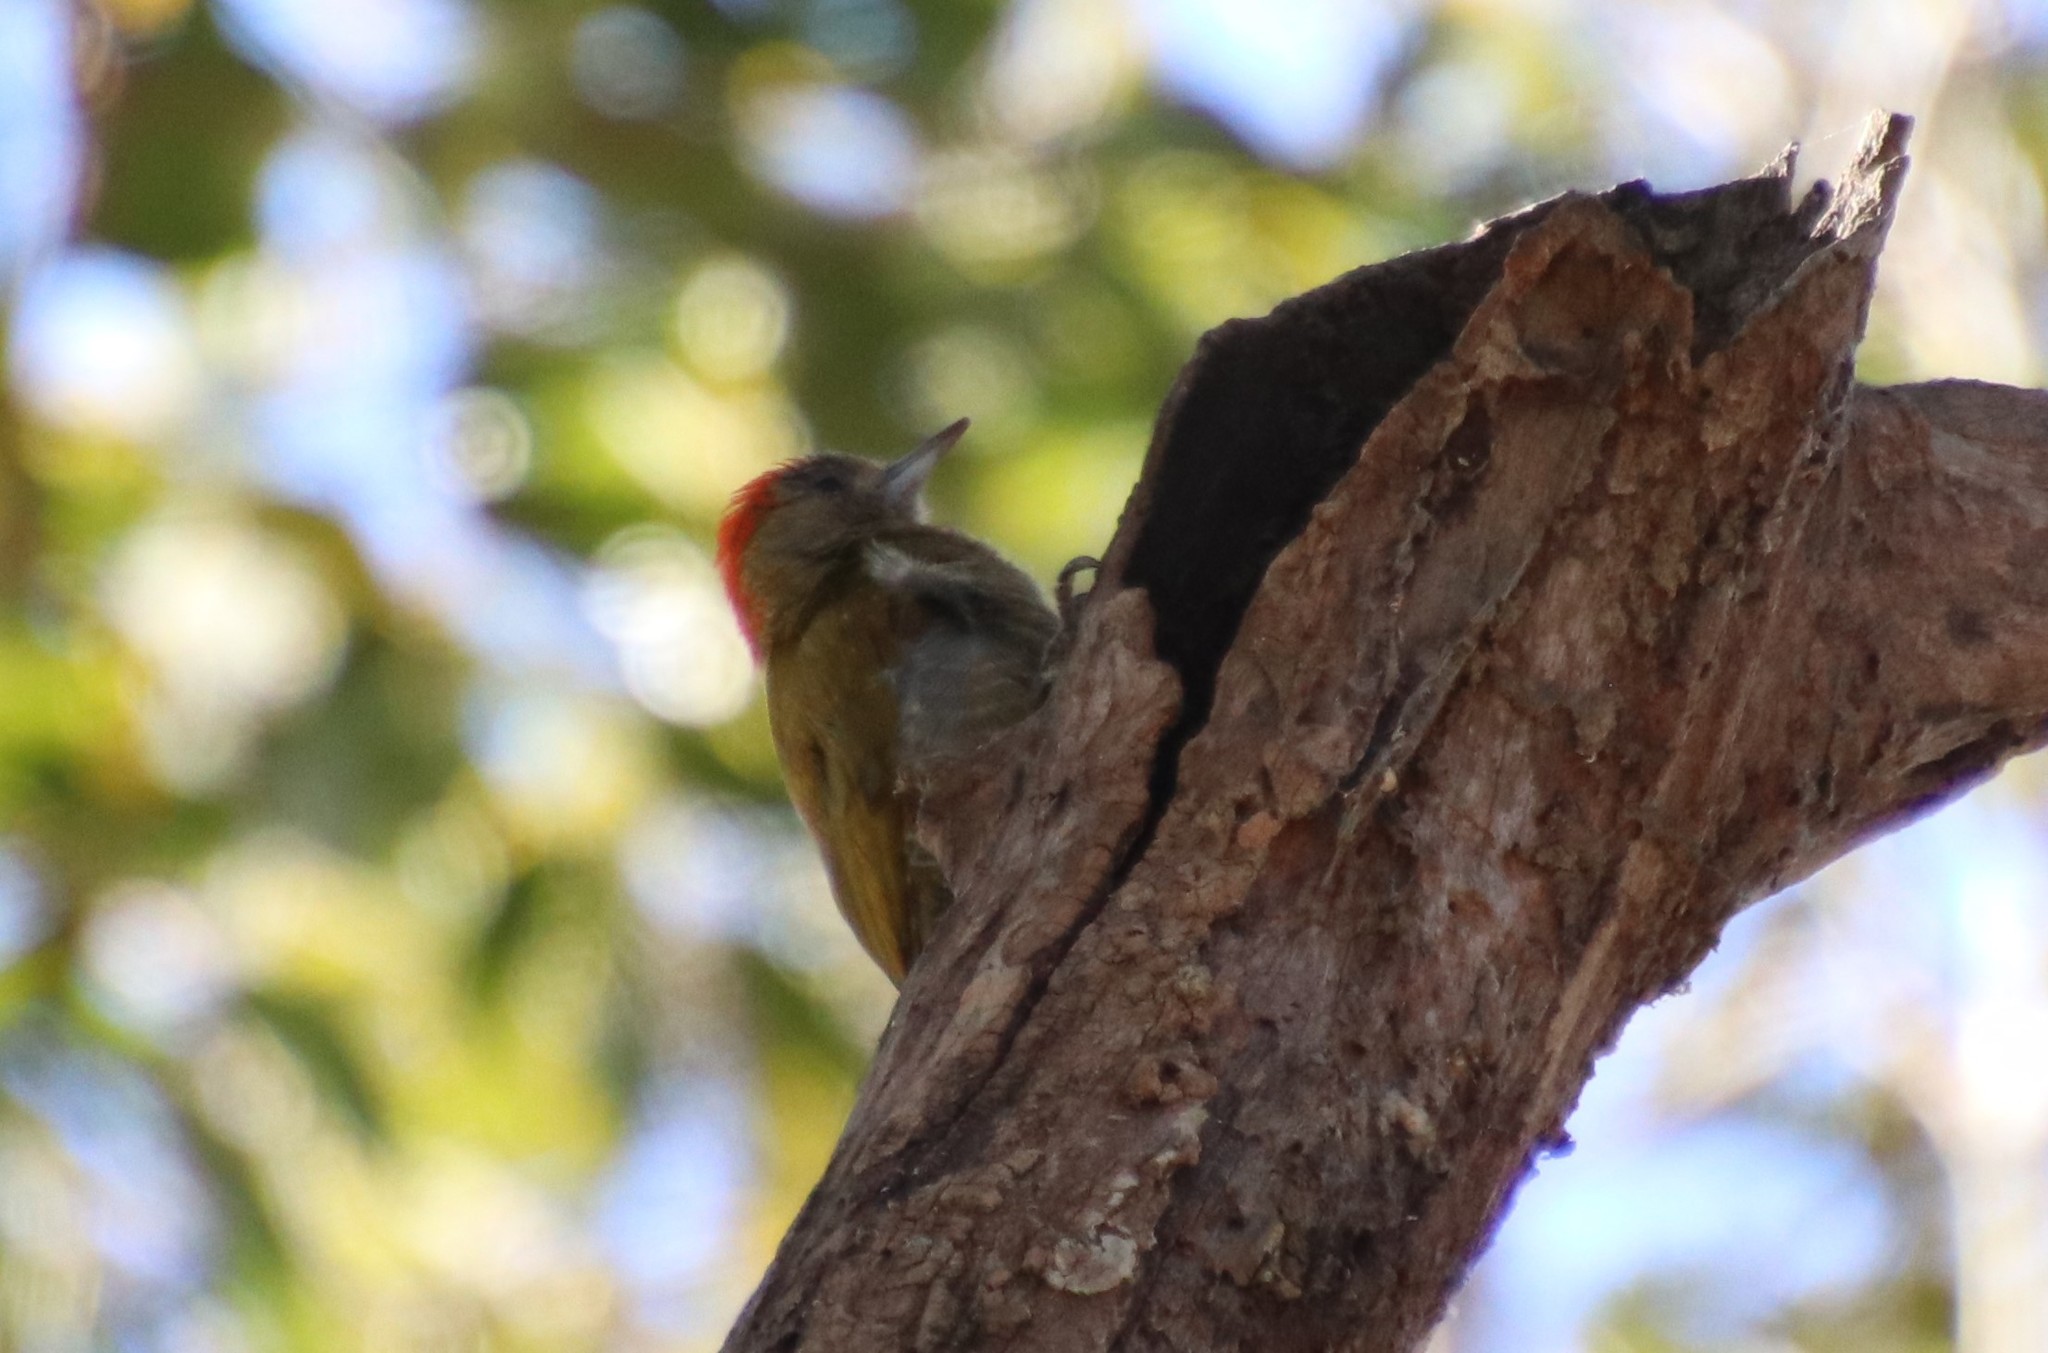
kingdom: Animalia
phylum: Chordata
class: Aves
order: Piciformes
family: Picidae
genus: Veniliornis
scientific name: Veniliornis passerinus
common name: Little woodpecker
